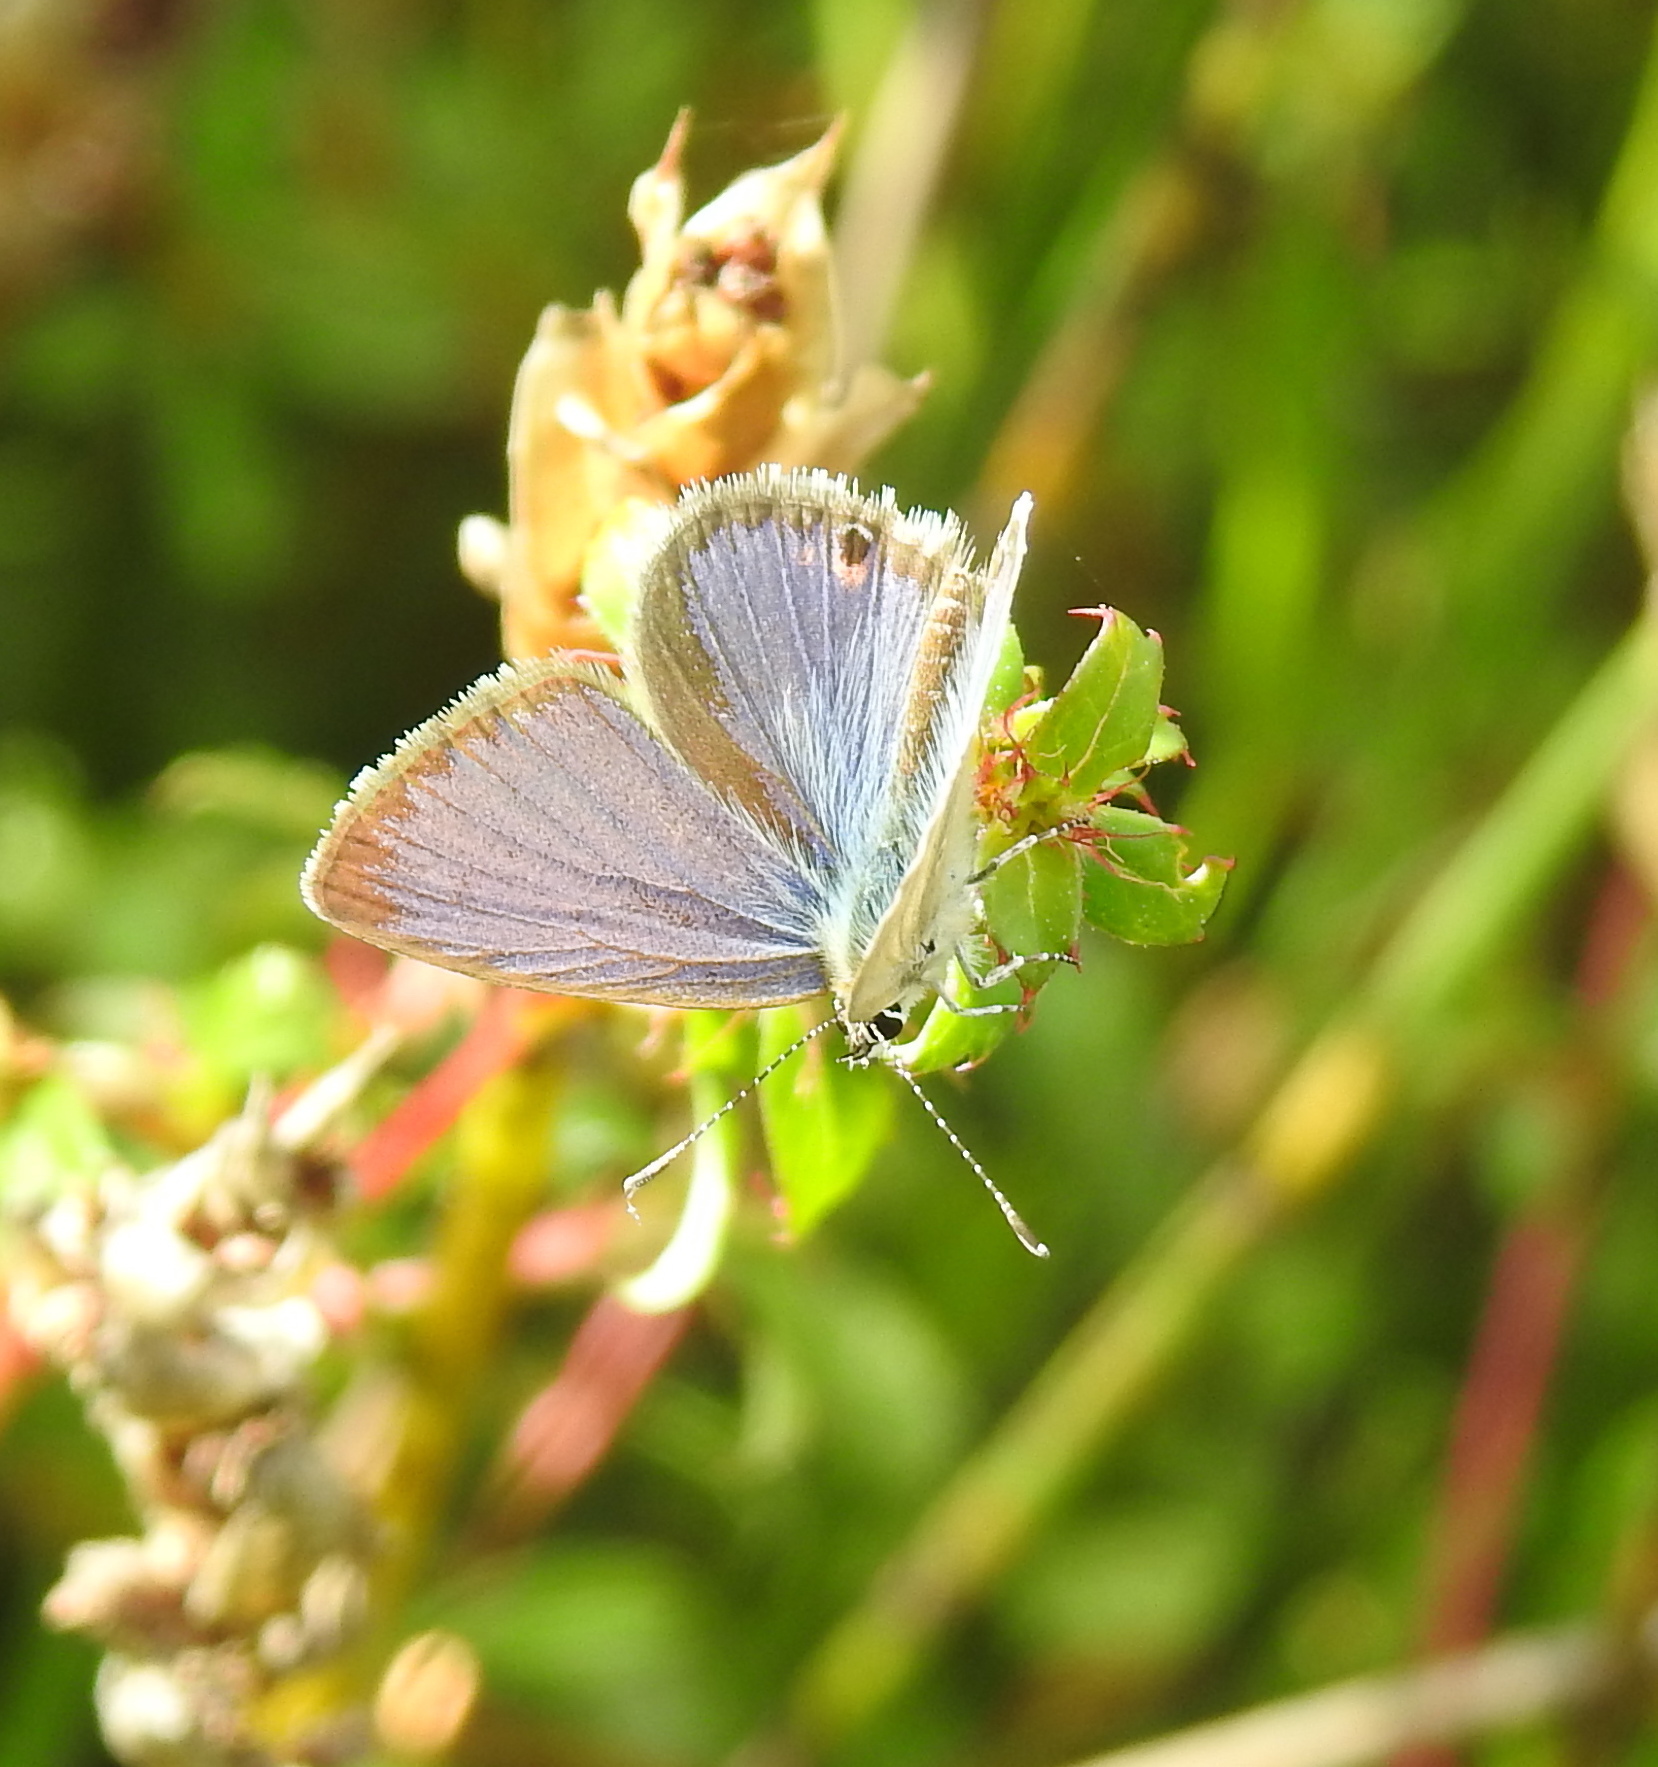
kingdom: Animalia
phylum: Arthropoda
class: Insecta
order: Lepidoptera
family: Lycaenidae
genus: Eicochrysops
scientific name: Eicochrysops messapus
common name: Cupreous blue
